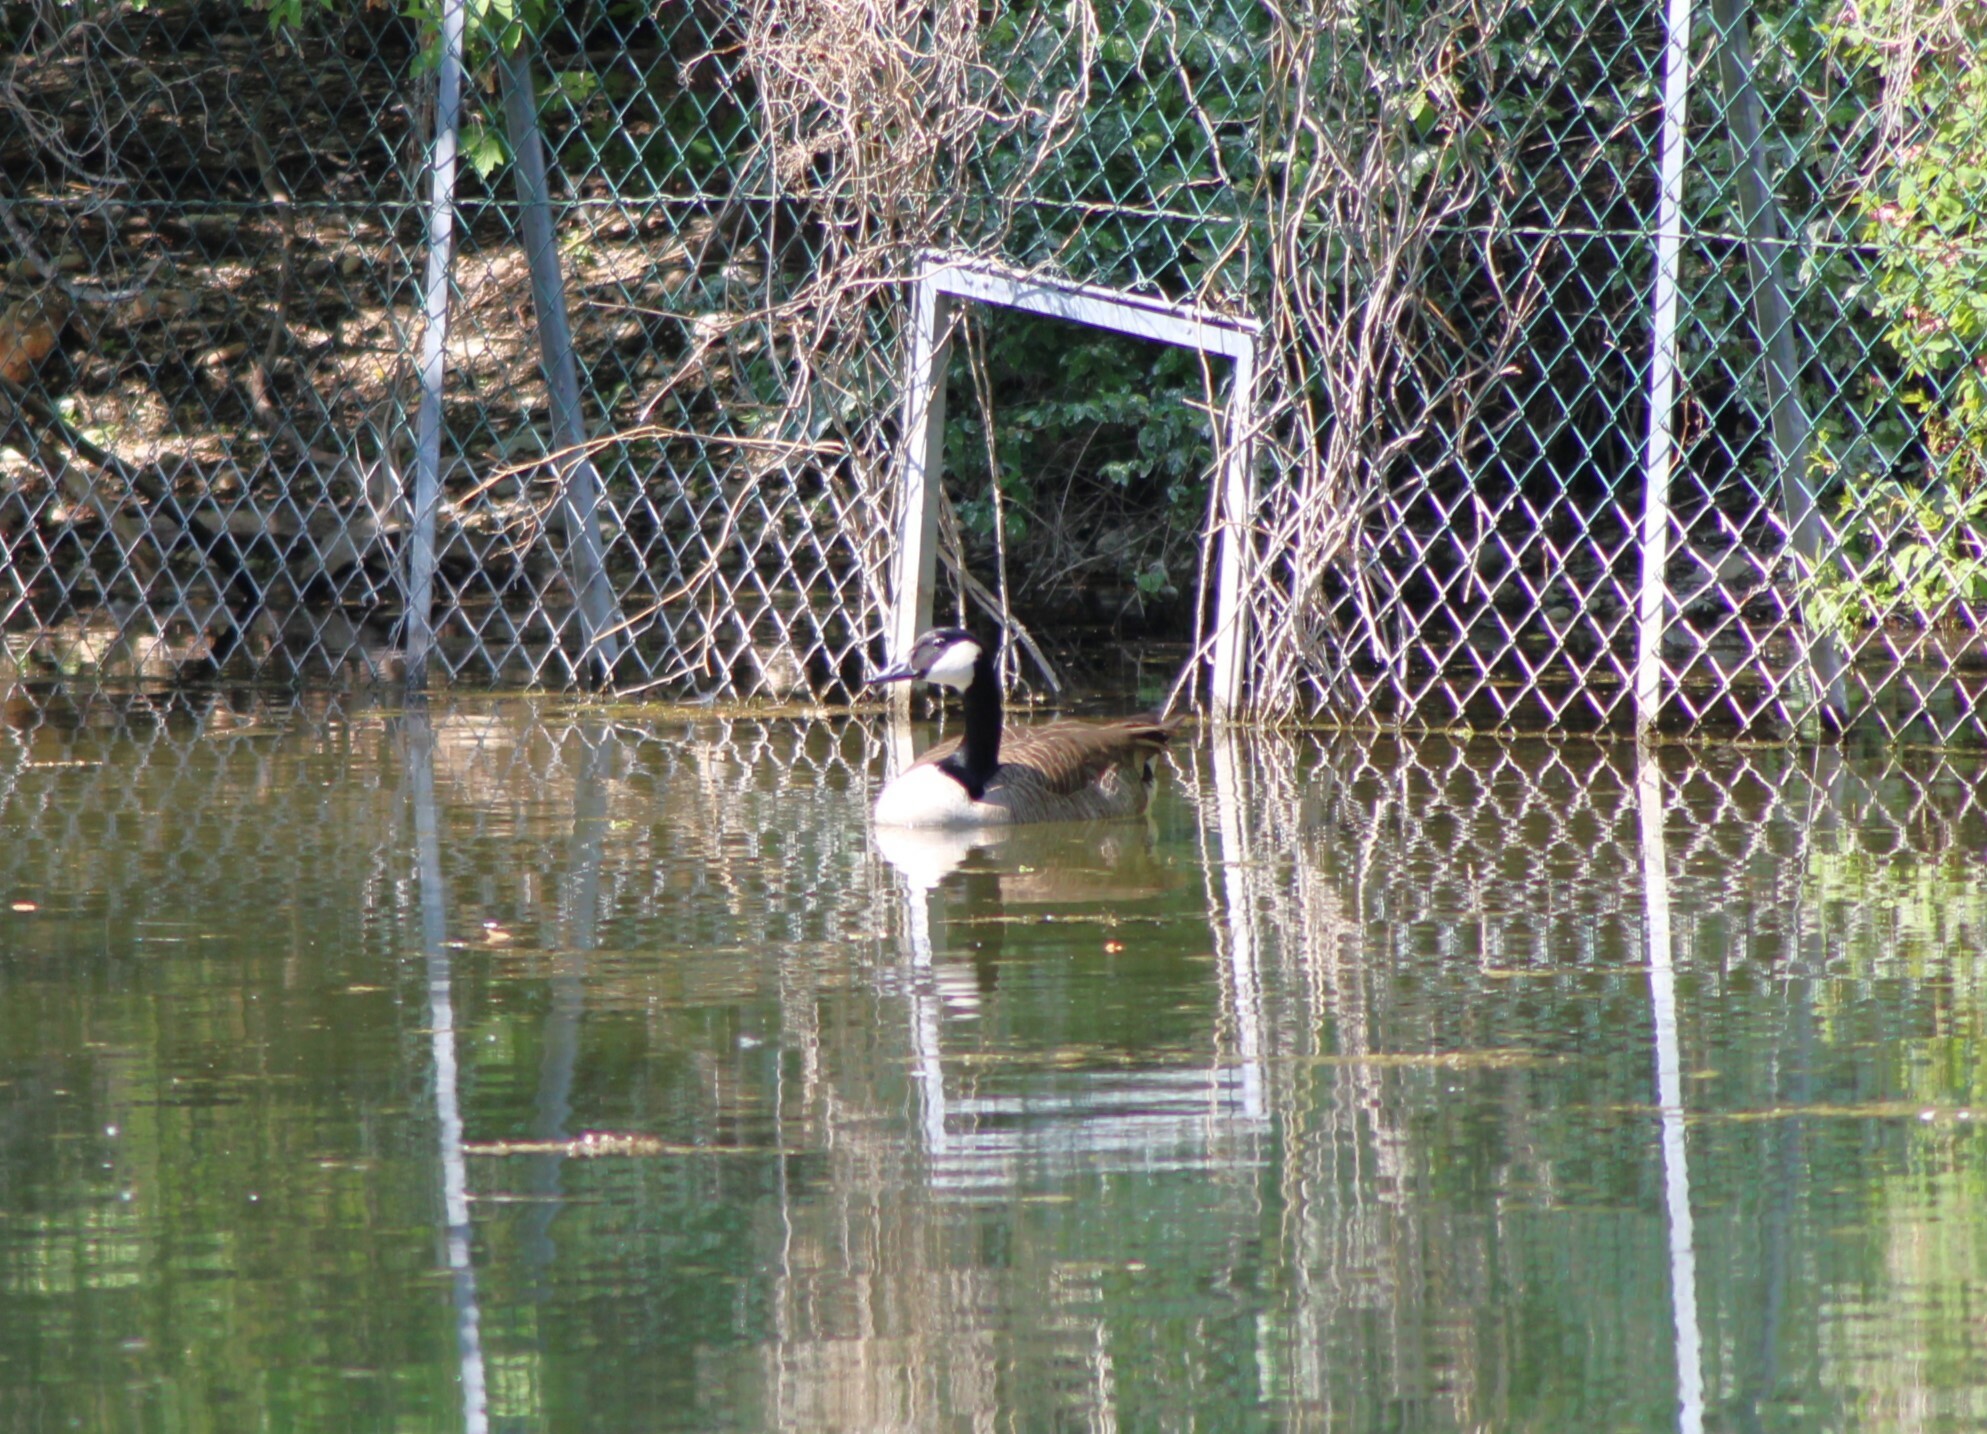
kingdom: Animalia
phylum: Chordata
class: Aves
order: Anseriformes
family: Anatidae
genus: Branta
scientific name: Branta canadensis
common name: Canada goose
